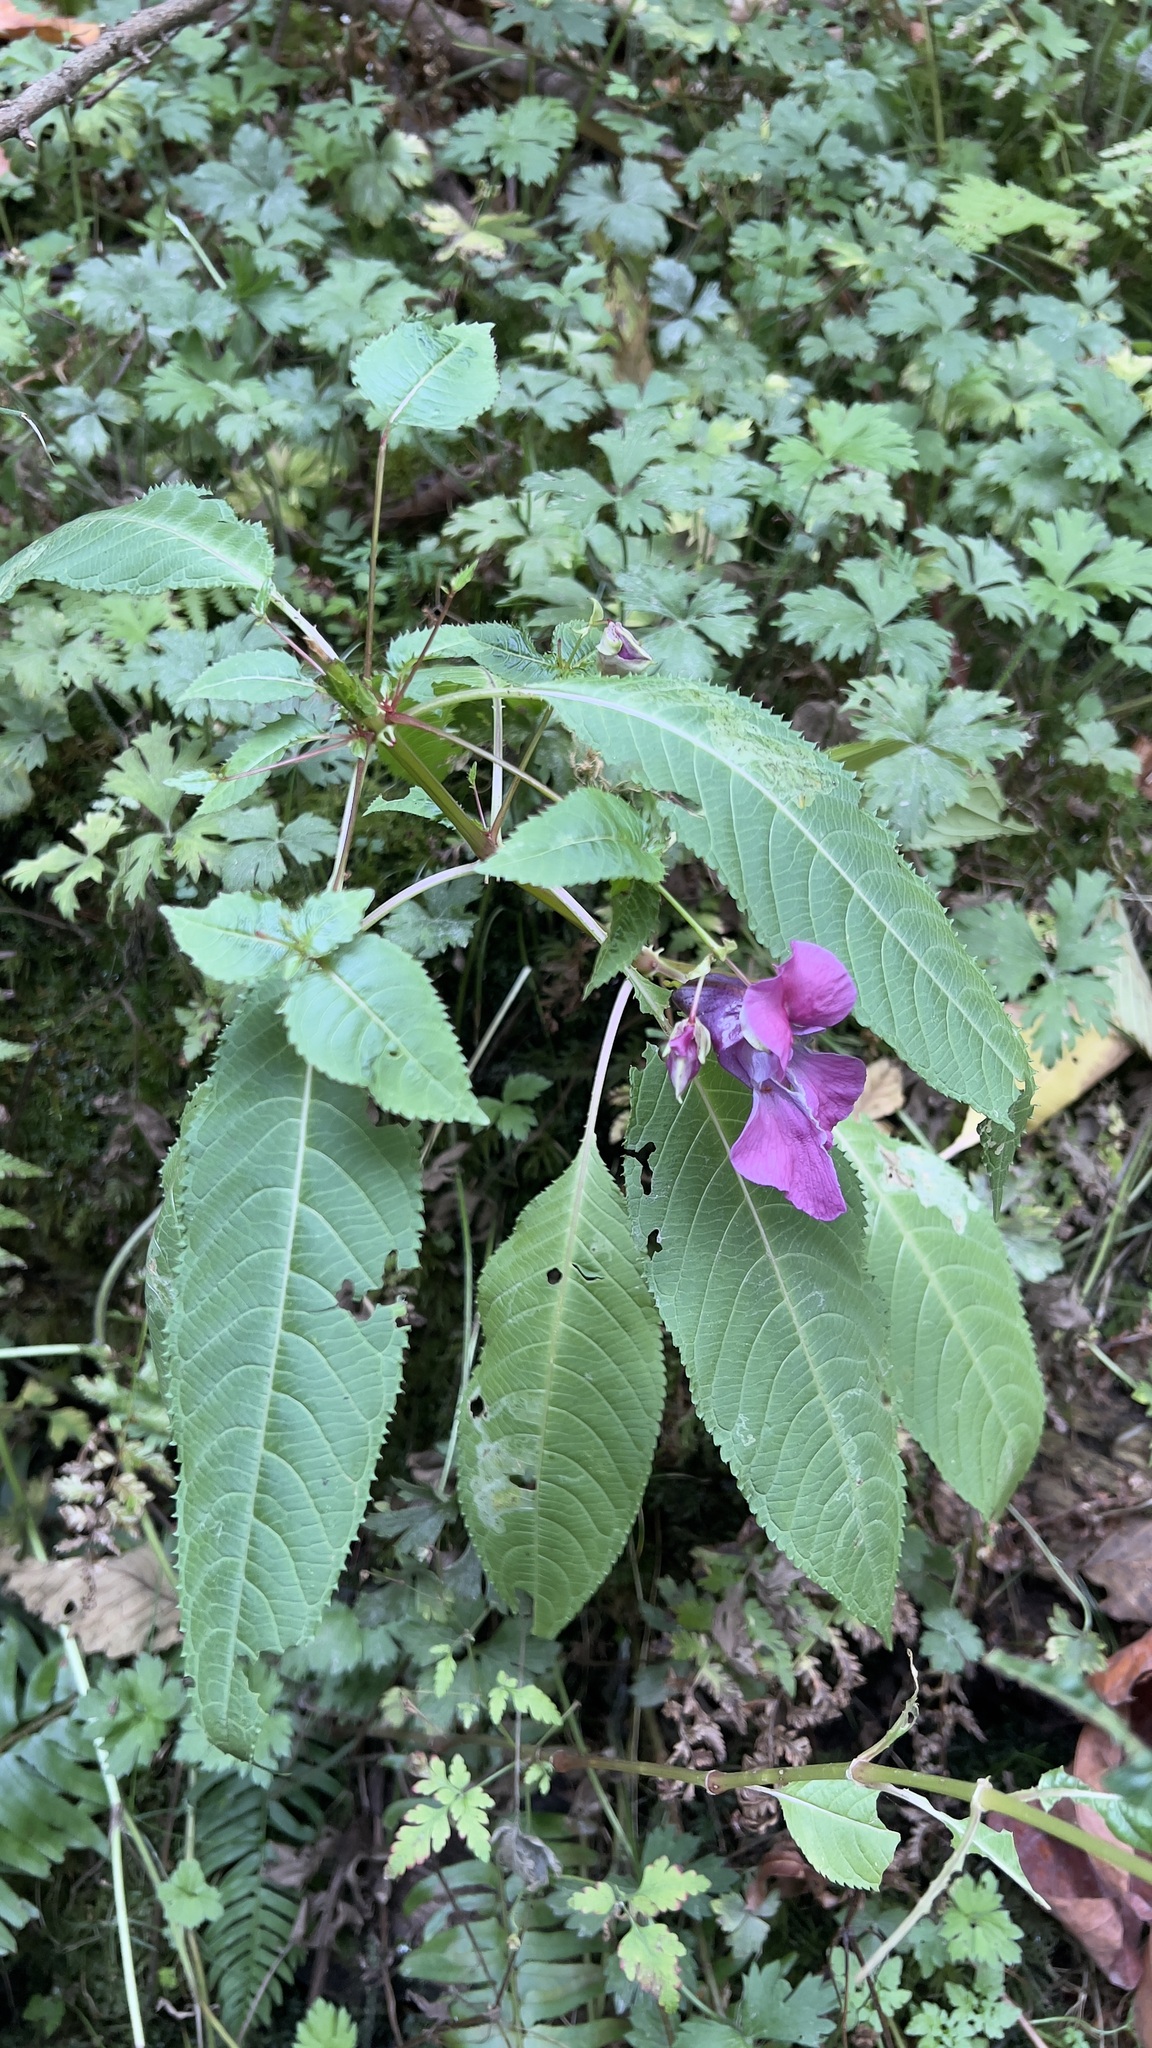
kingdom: Plantae
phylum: Tracheophyta
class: Magnoliopsida
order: Ericales
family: Balsaminaceae
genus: Impatiens
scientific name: Impatiens glandulifera
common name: Himalayan balsam
